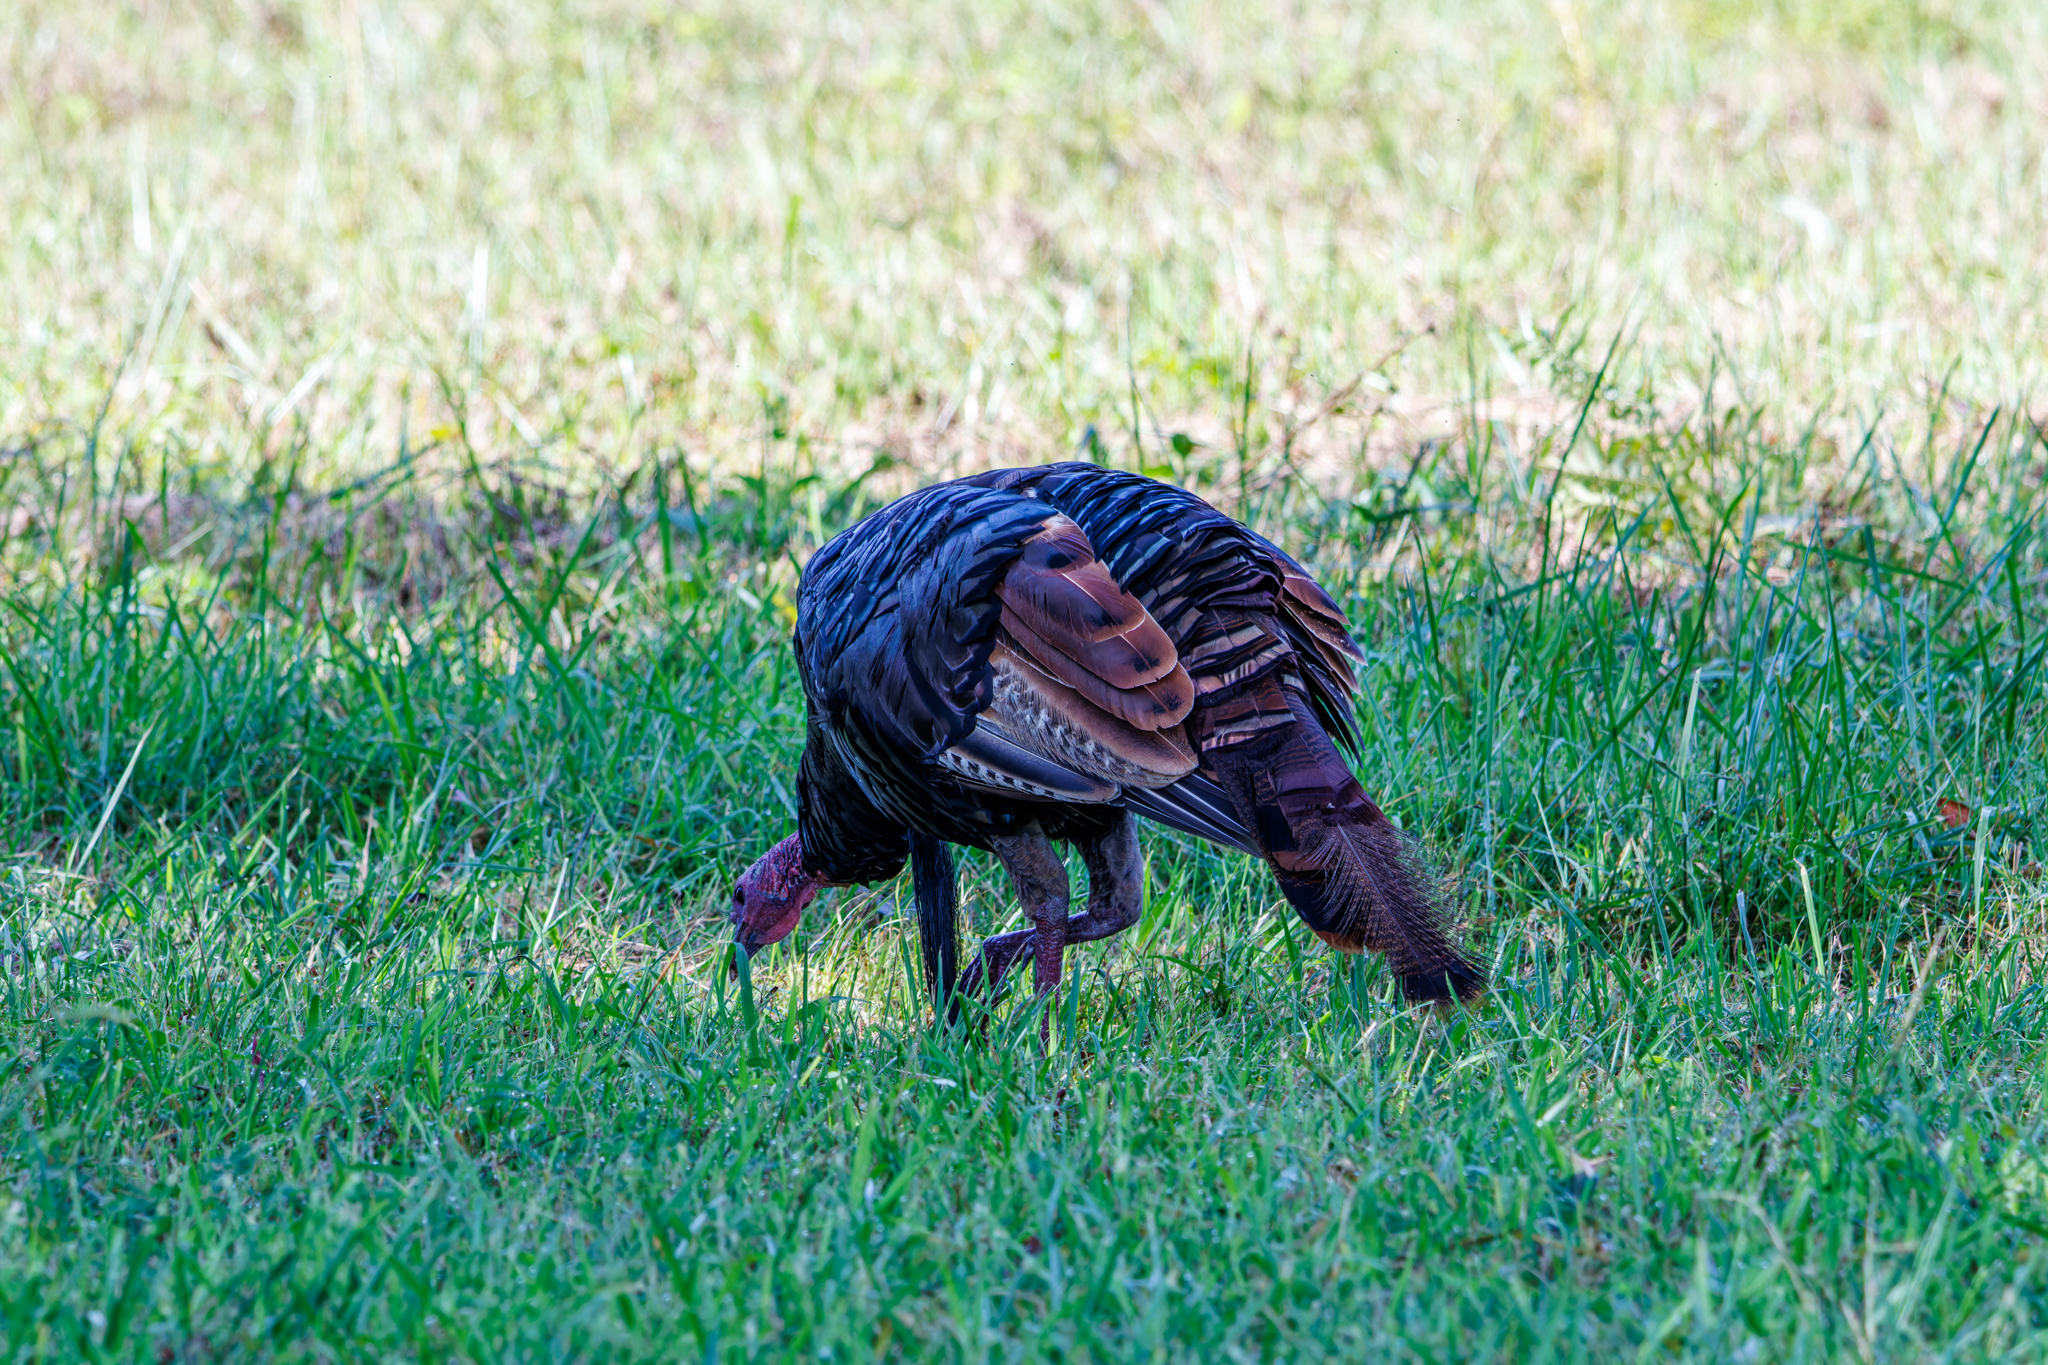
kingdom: Animalia
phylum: Chordata
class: Aves
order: Galliformes
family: Phasianidae
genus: Meleagris
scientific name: Meleagris gallopavo
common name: Wild turkey
